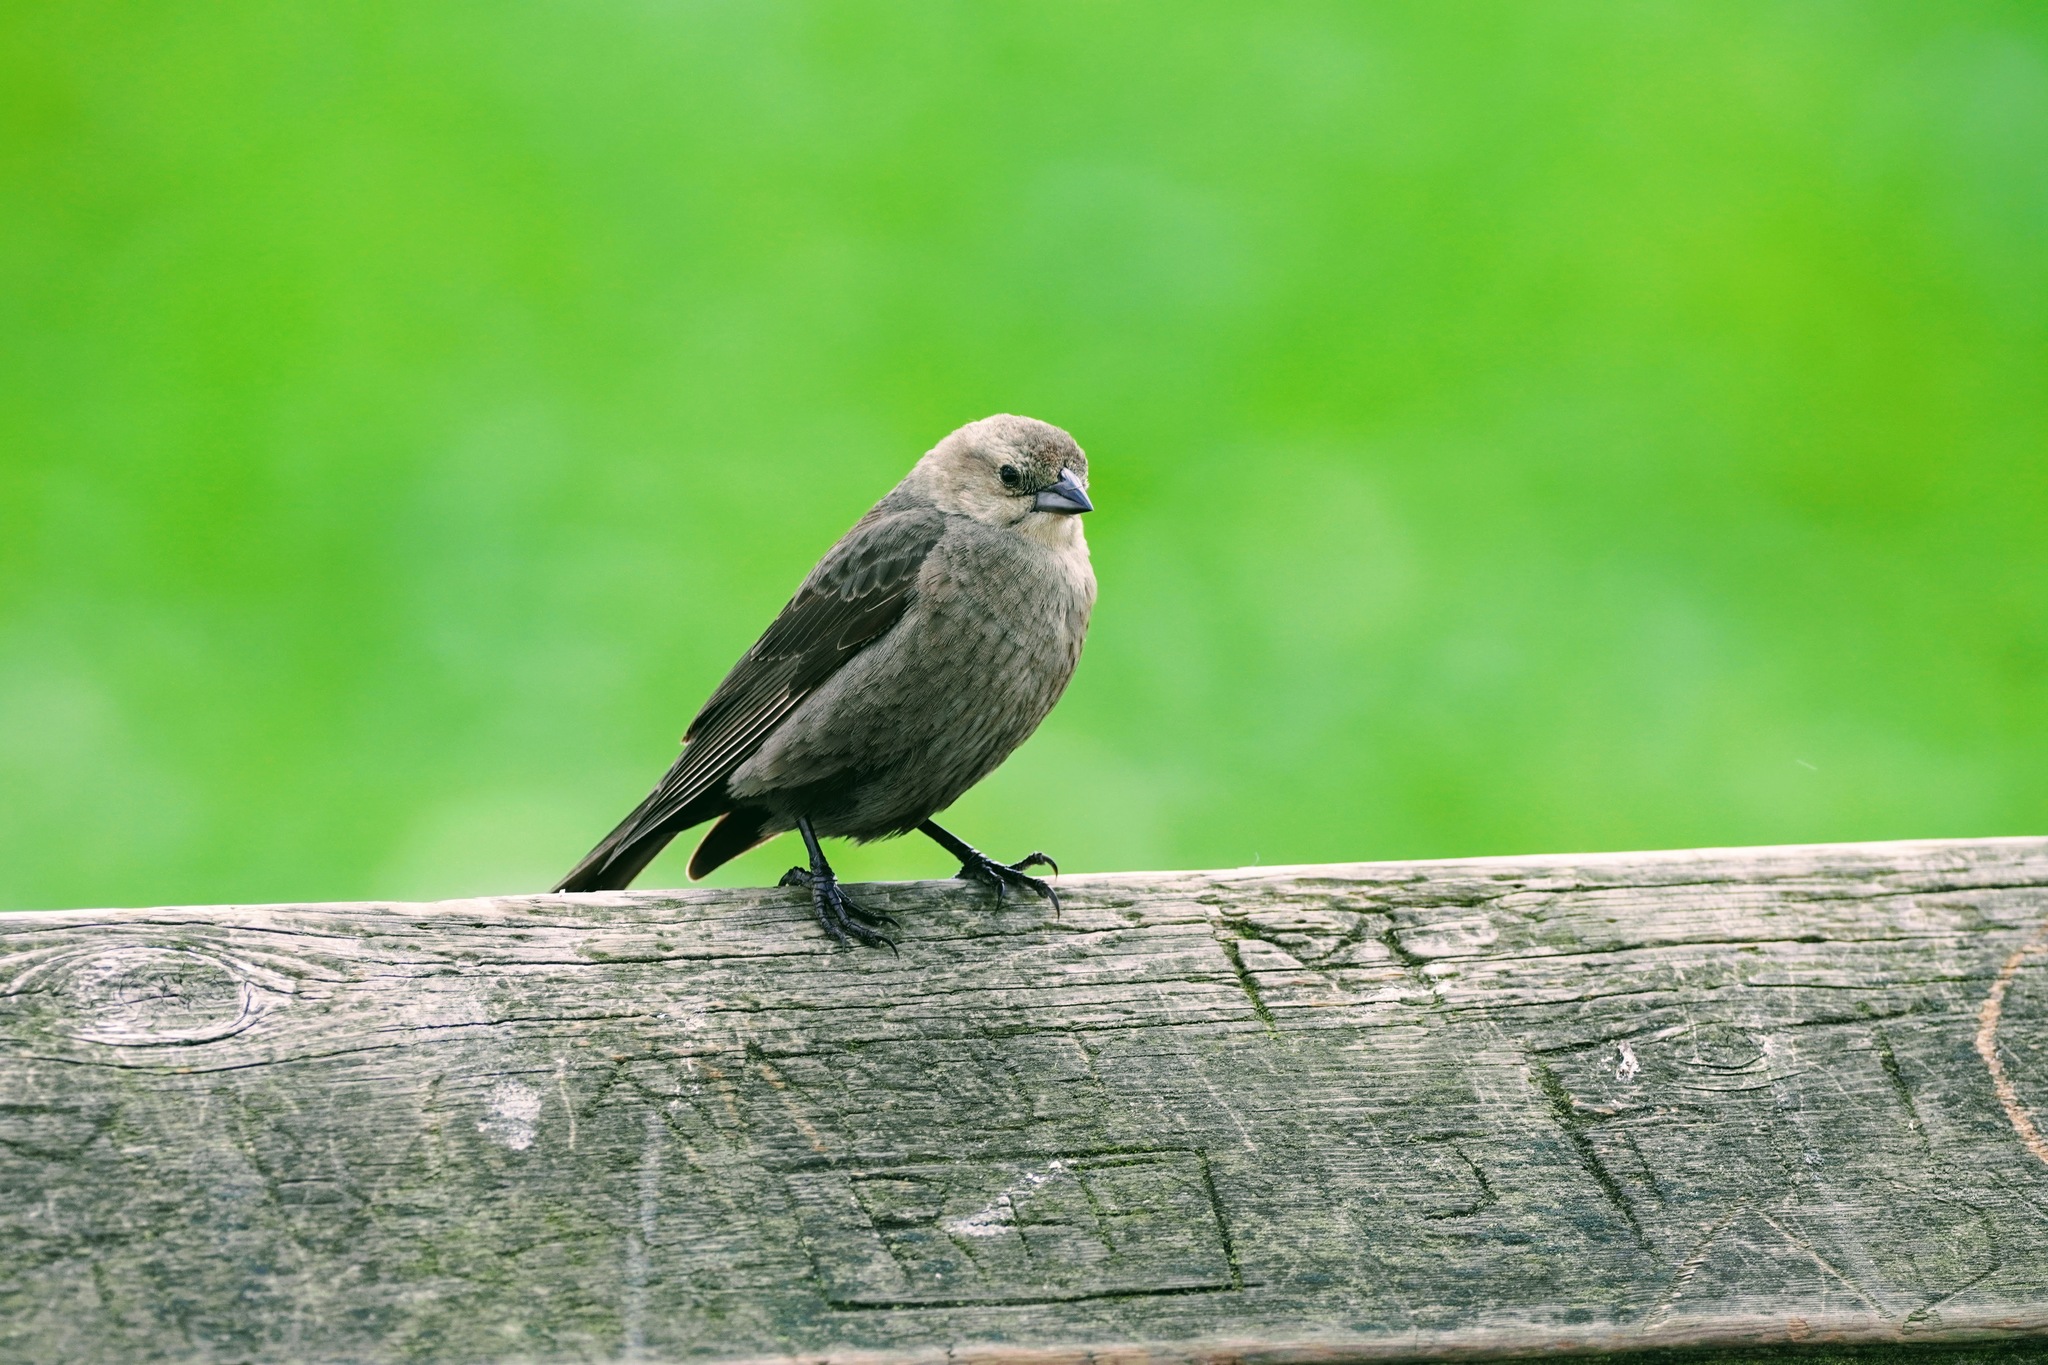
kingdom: Animalia
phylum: Chordata
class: Aves
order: Passeriformes
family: Icteridae
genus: Molothrus
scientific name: Molothrus ater
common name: Brown-headed cowbird
